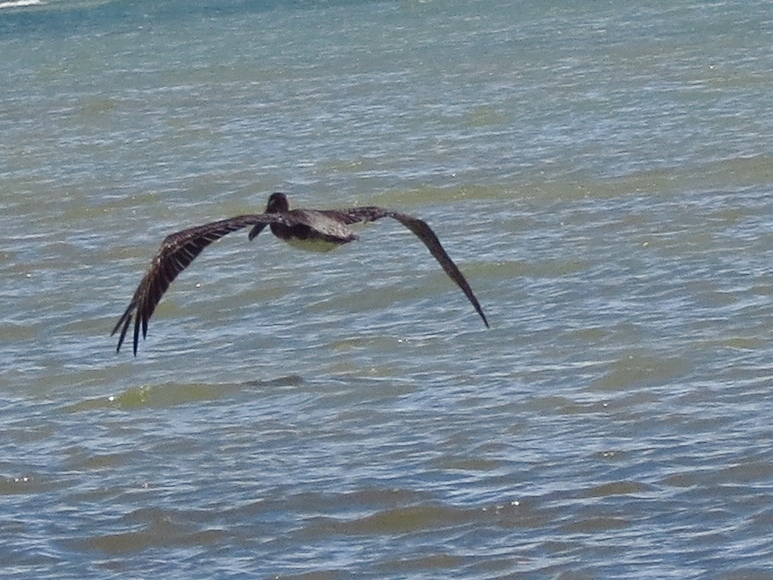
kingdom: Animalia
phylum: Chordata
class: Aves
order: Pelecaniformes
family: Pelecanidae
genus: Pelecanus
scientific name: Pelecanus occidentalis
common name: Brown pelican
